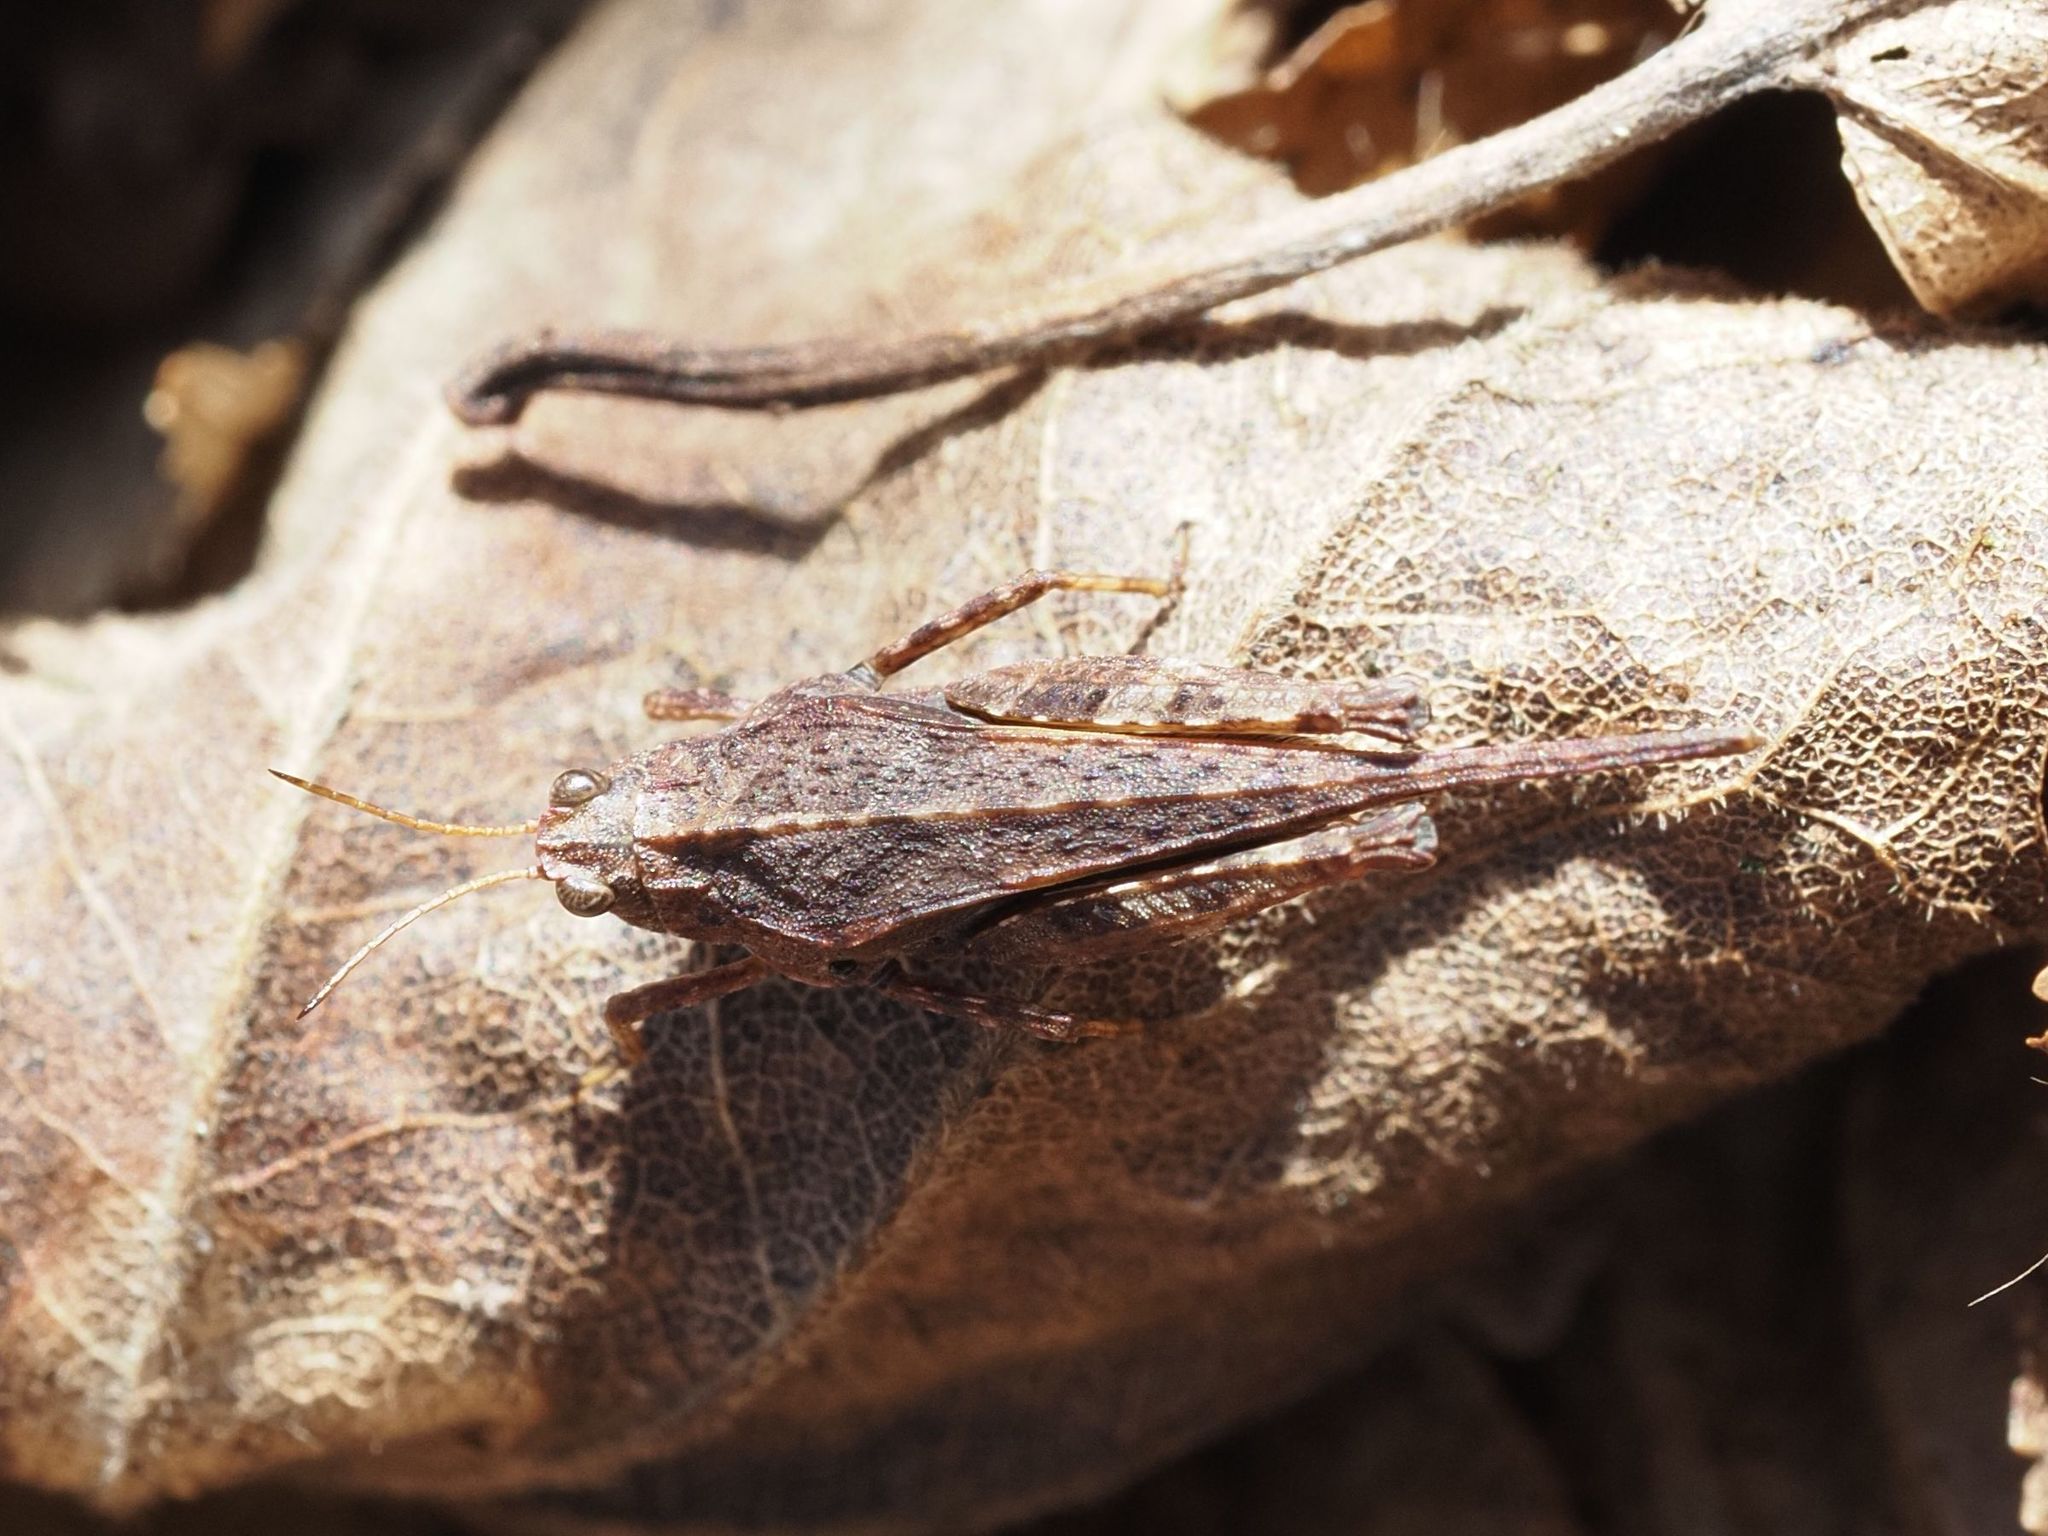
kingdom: Animalia
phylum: Arthropoda
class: Insecta
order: Orthoptera
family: Tetrigidae
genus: Tetrix
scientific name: Tetrix subulata
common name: Slender ground-hopper
